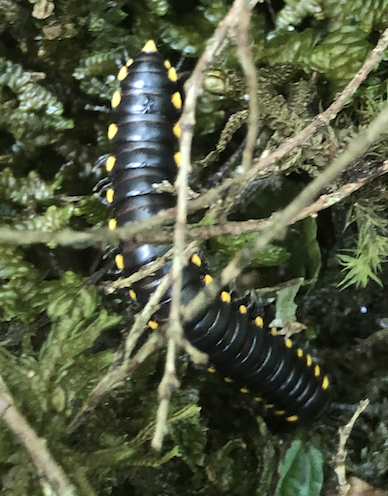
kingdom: Animalia
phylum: Arthropoda
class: Diplopoda
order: Polydesmida
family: Xystodesmidae
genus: Harpaphe
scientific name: Harpaphe haydeniana
